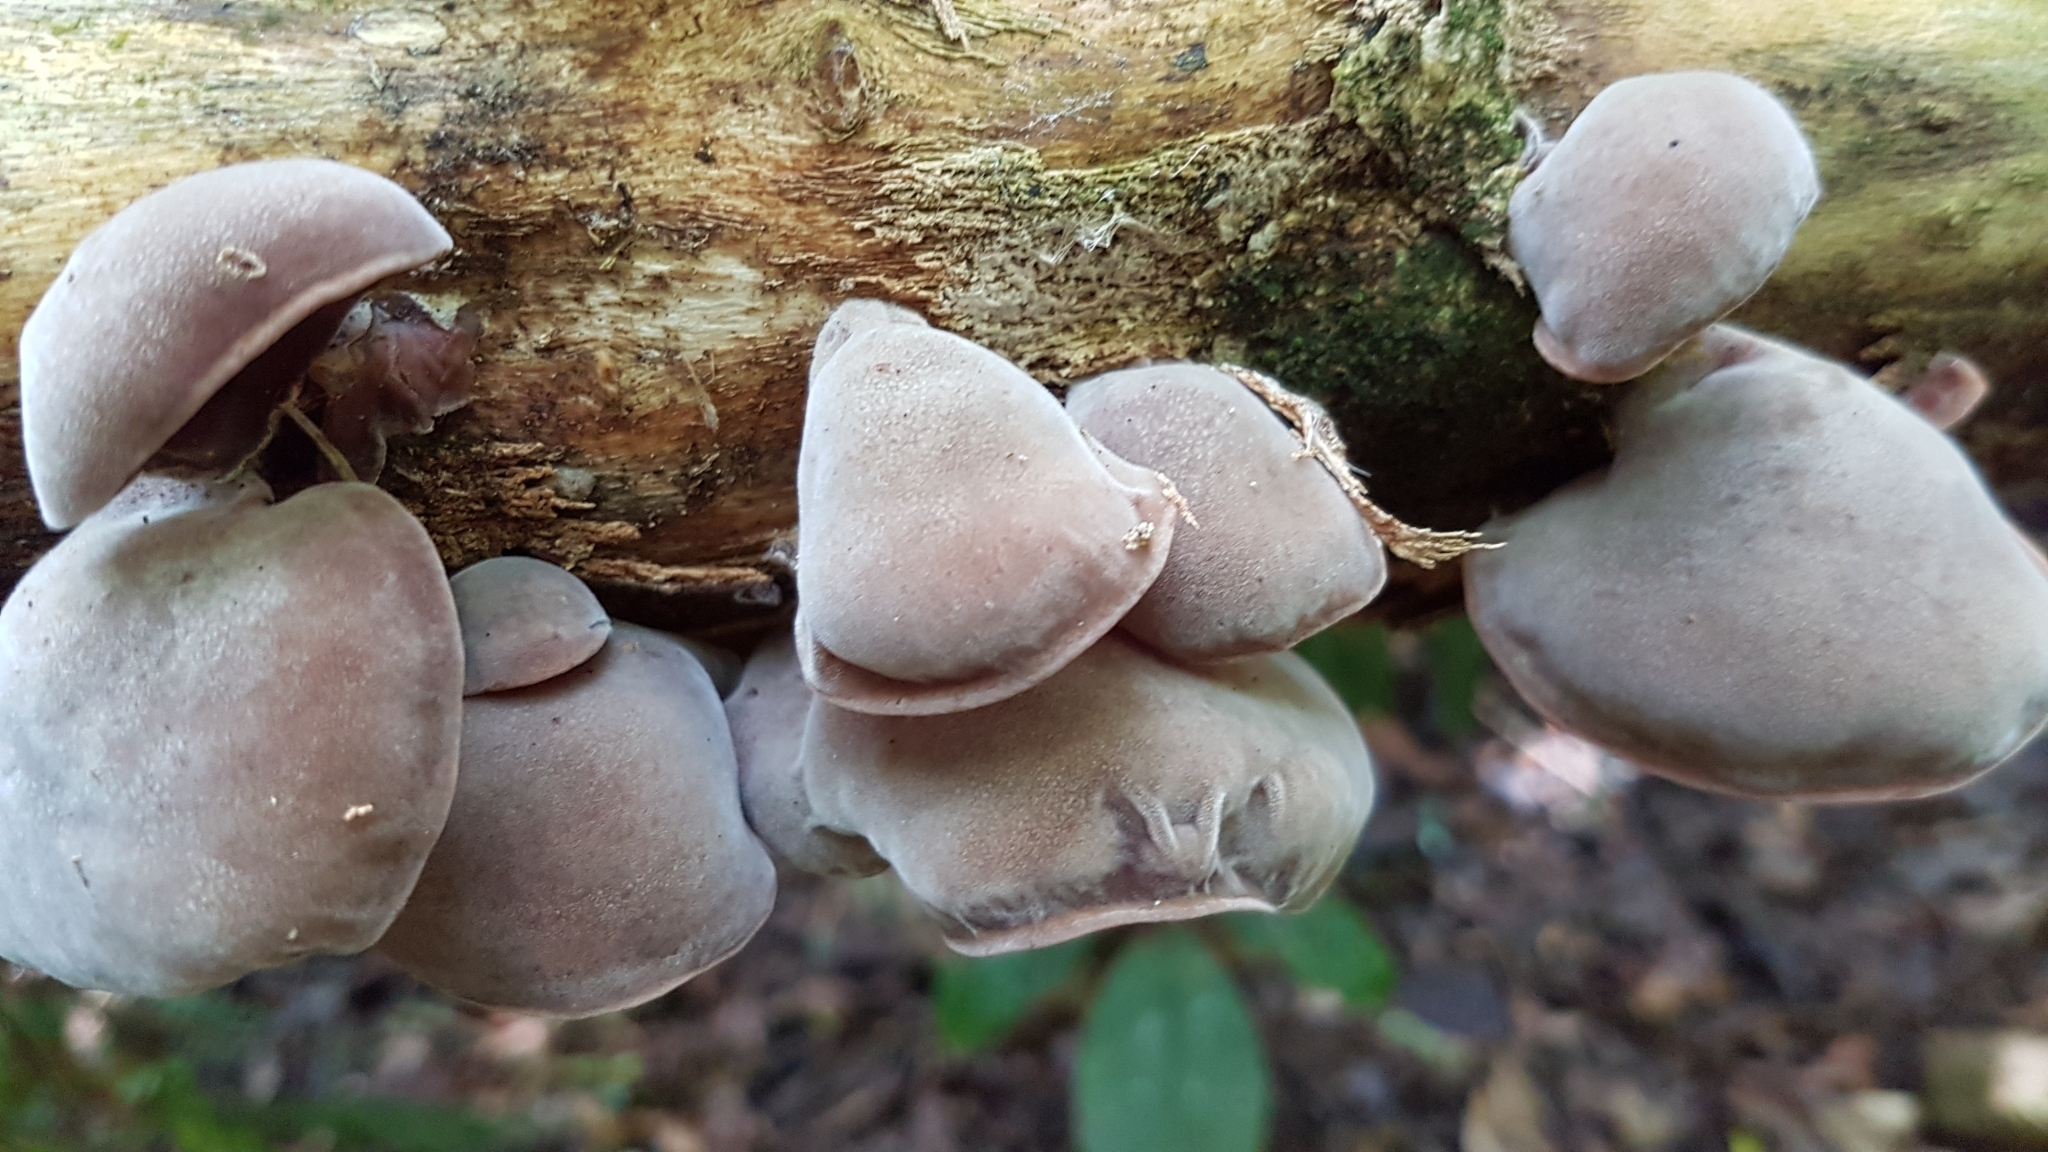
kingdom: Fungi
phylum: Basidiomycota
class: Agaricomycetes
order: Auriculariales
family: Auriculariaceae
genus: Auricularia
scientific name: Auricularia cornea
